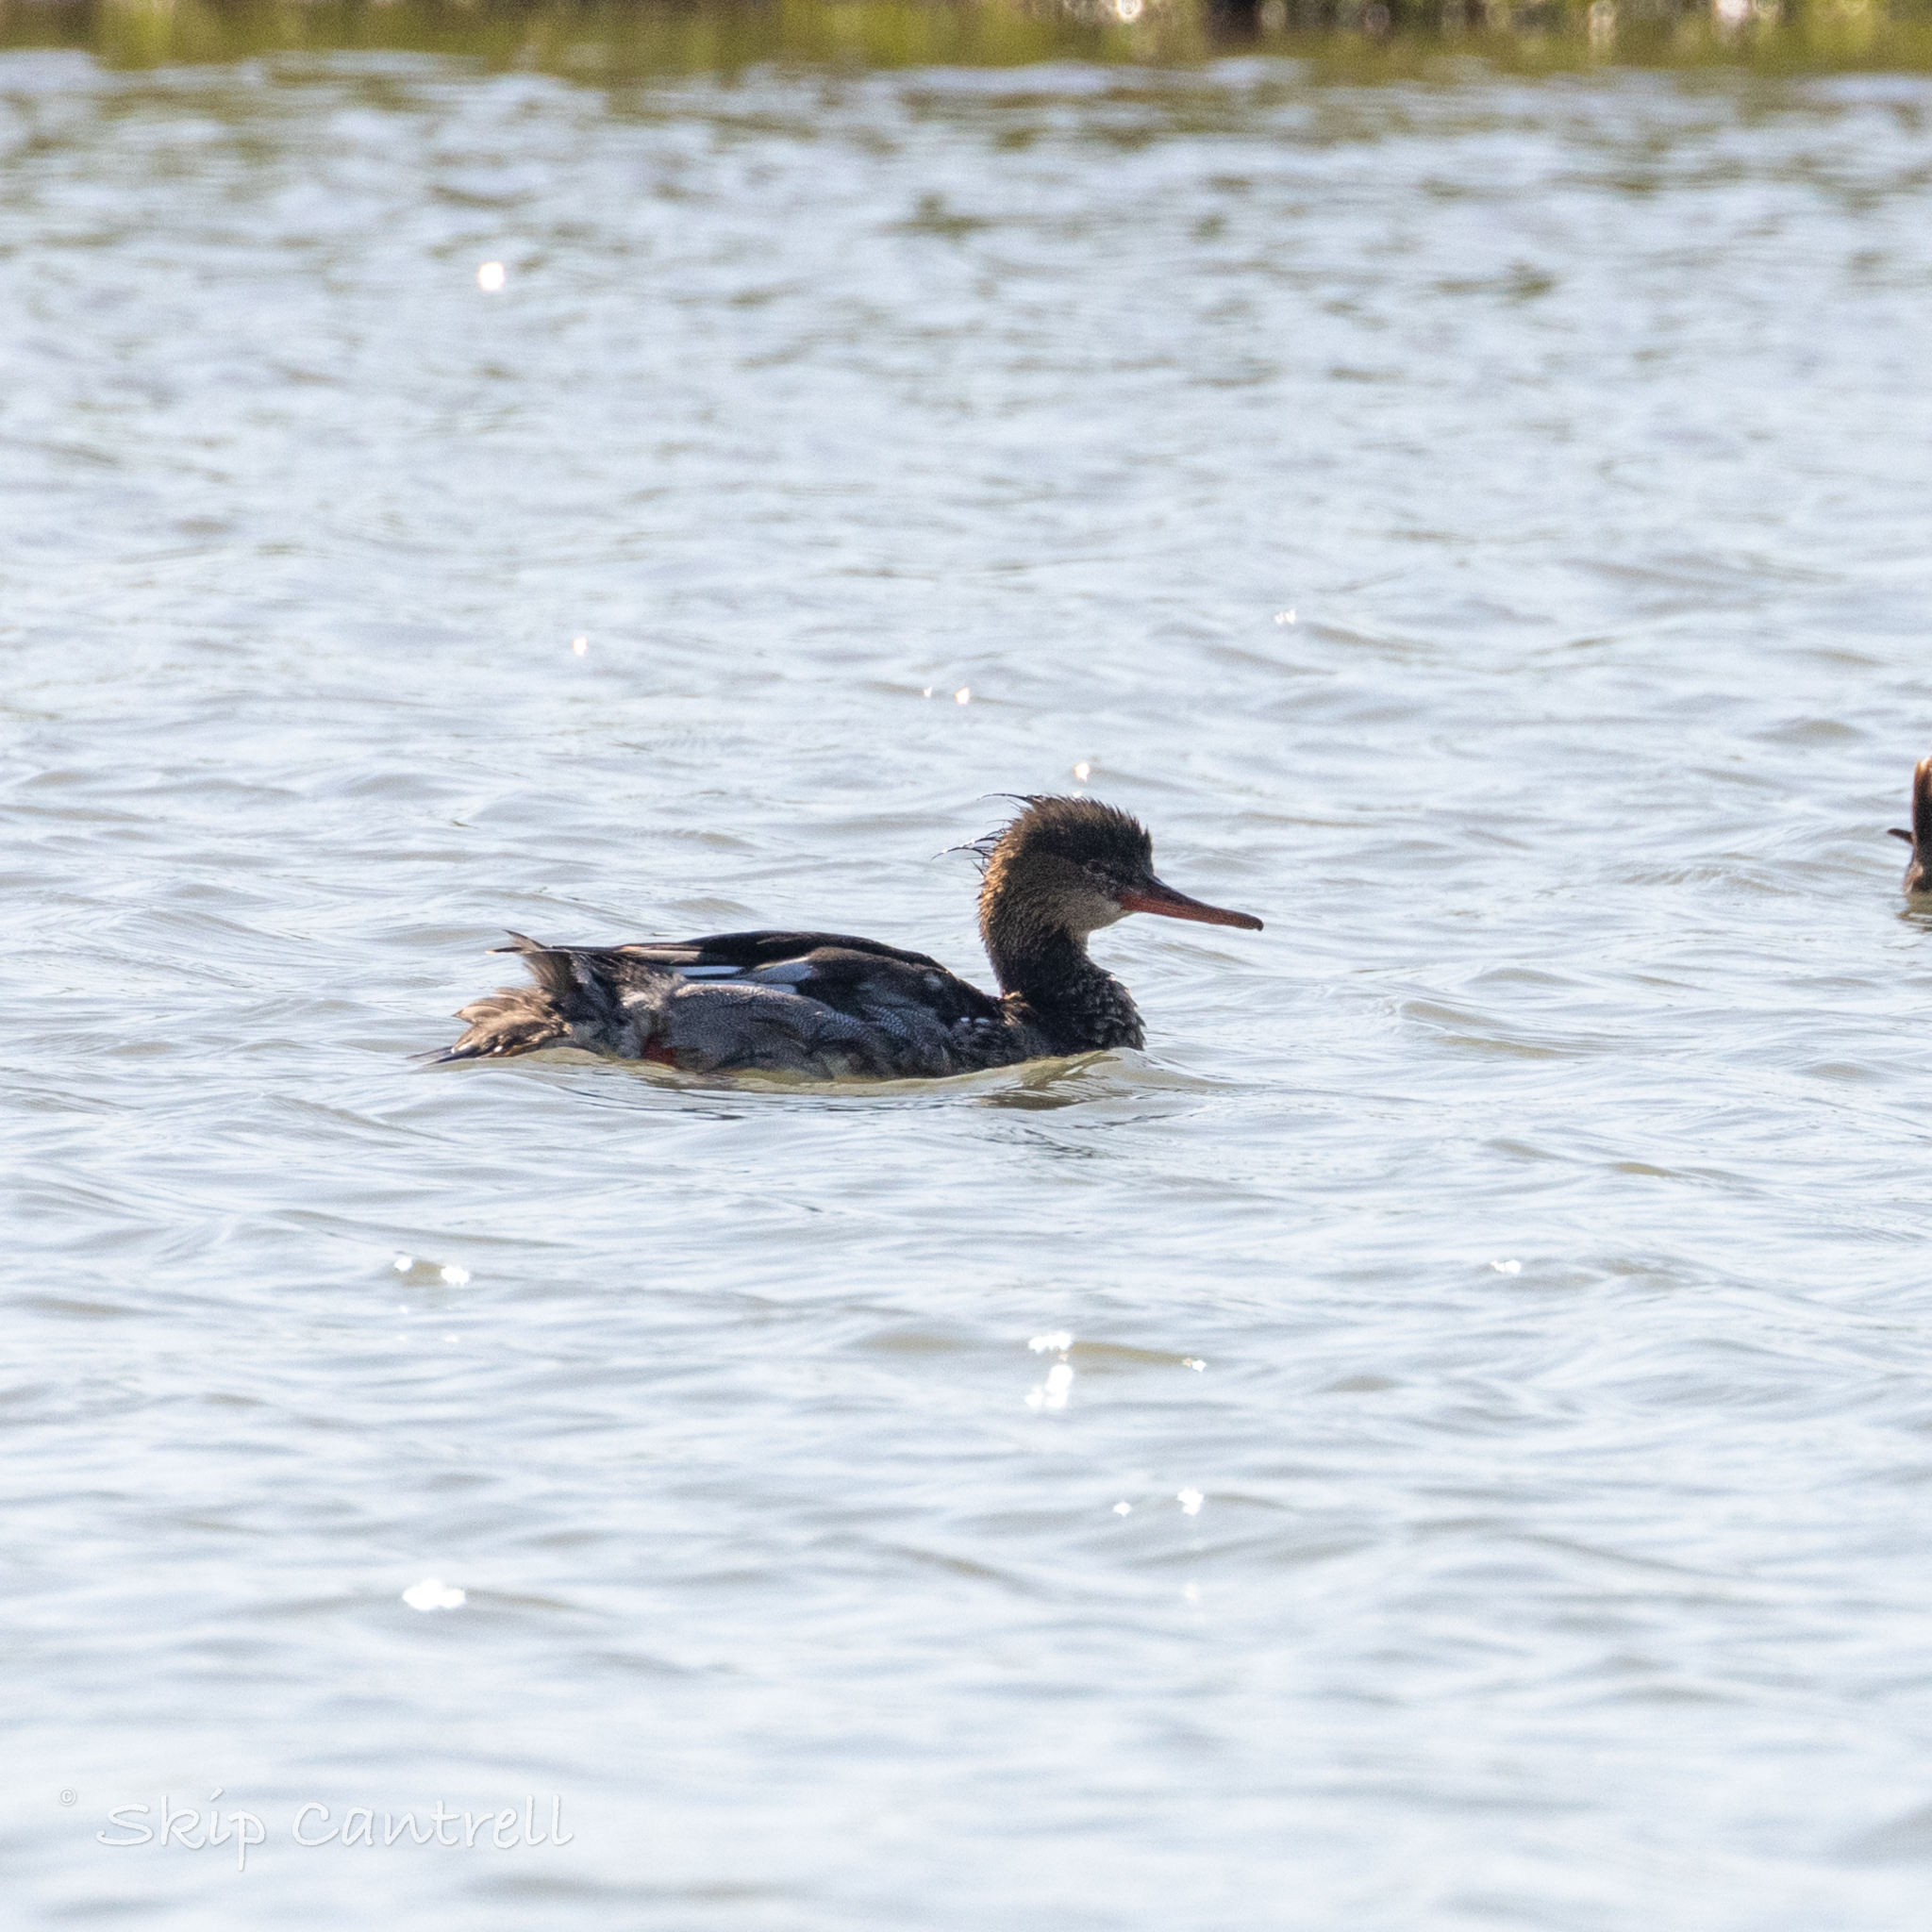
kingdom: Animalia
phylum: Chordata
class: Aves
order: Anseriformes
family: Anatidae
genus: Mergus
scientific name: Mergus serrator
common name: Red-breasted merganser
